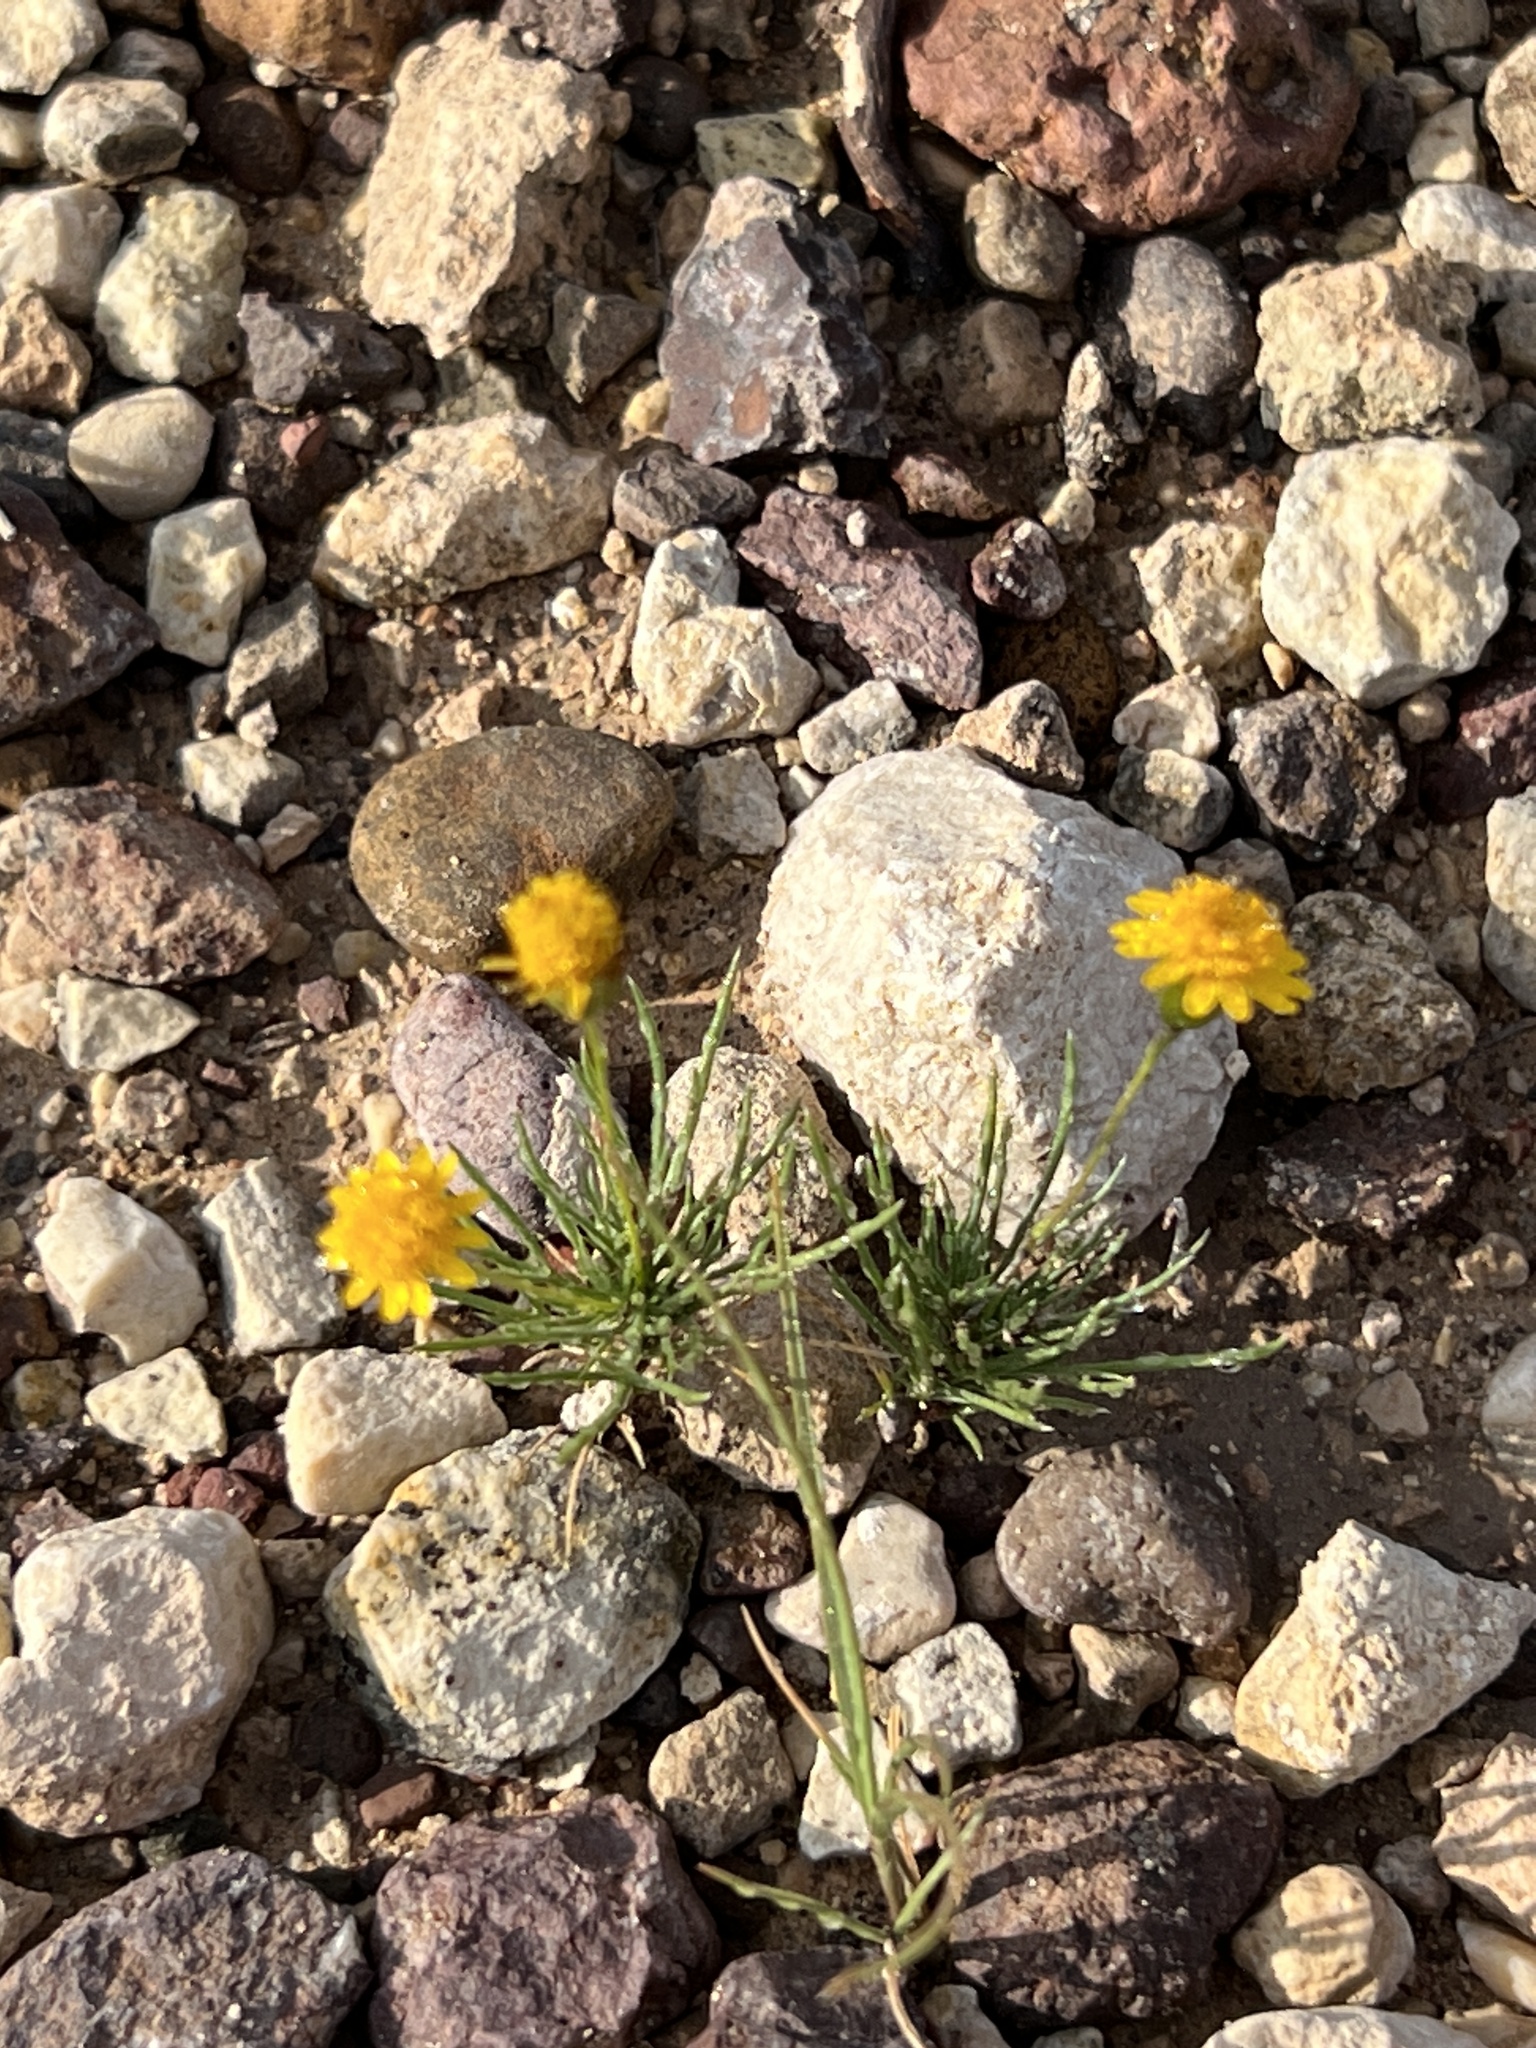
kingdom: Plantae
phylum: Tracheophyta
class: Magnoliopsida
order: Asterales
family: Asteraceae
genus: Thymophylla
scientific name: Thymophylla pentachaeta
